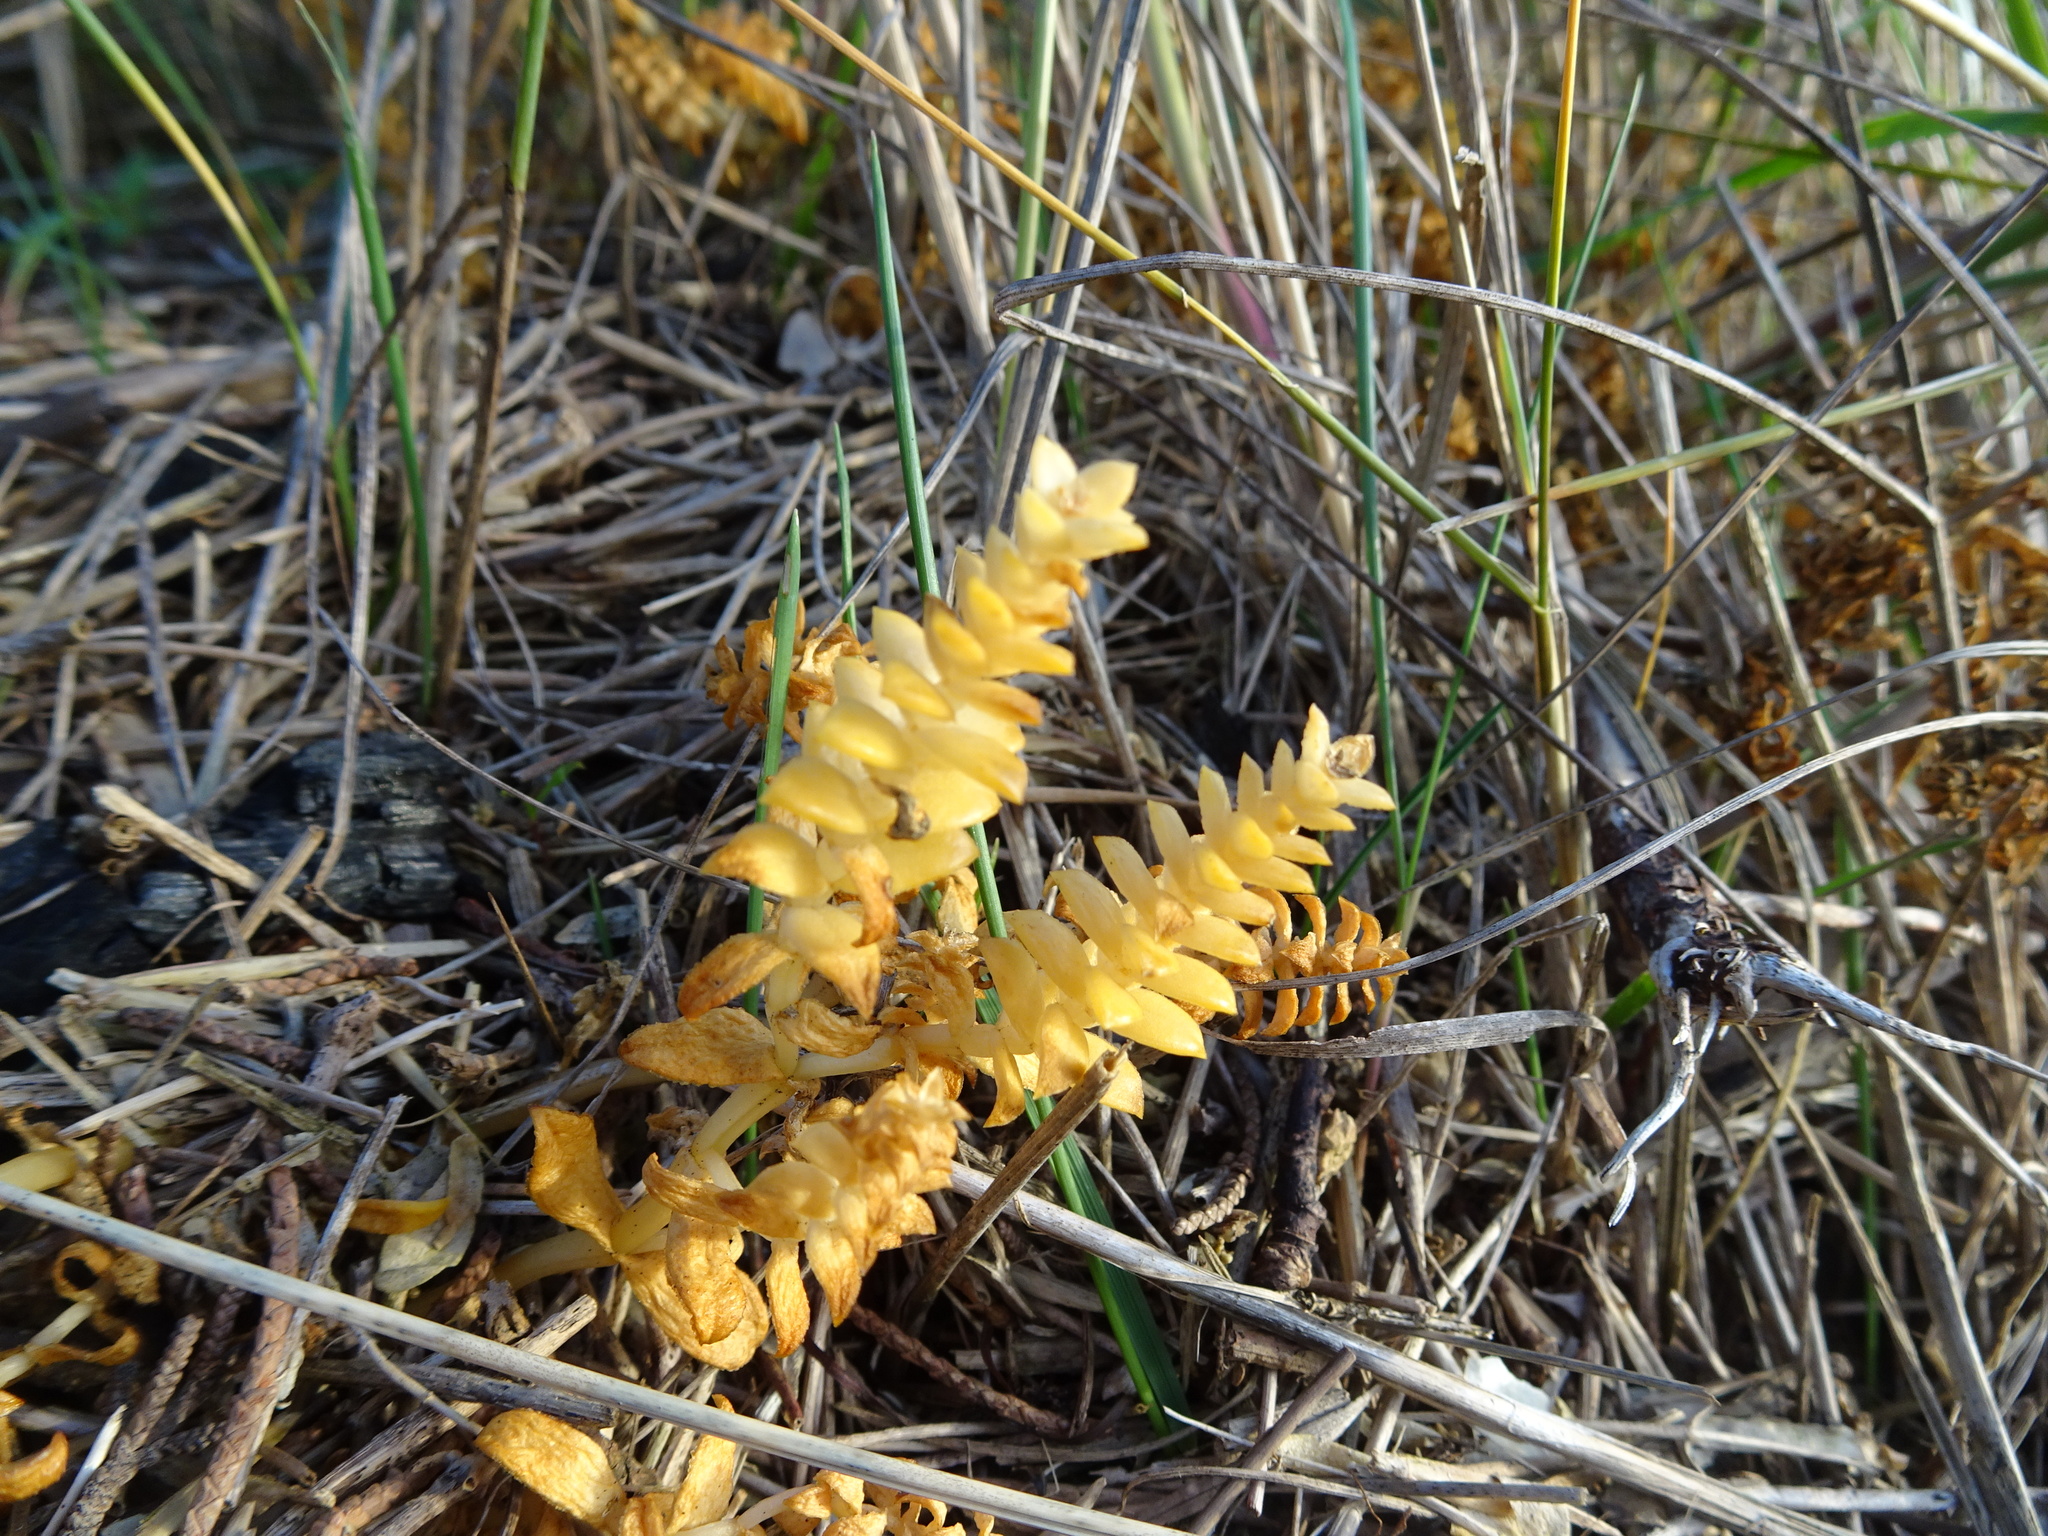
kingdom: Plantae
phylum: Tracheophyta
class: Magnoliopsida
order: Caryophyllales
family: Caryophyllaceae
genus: Honckenya
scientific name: Honckenya peploides
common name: Sea sandwort
